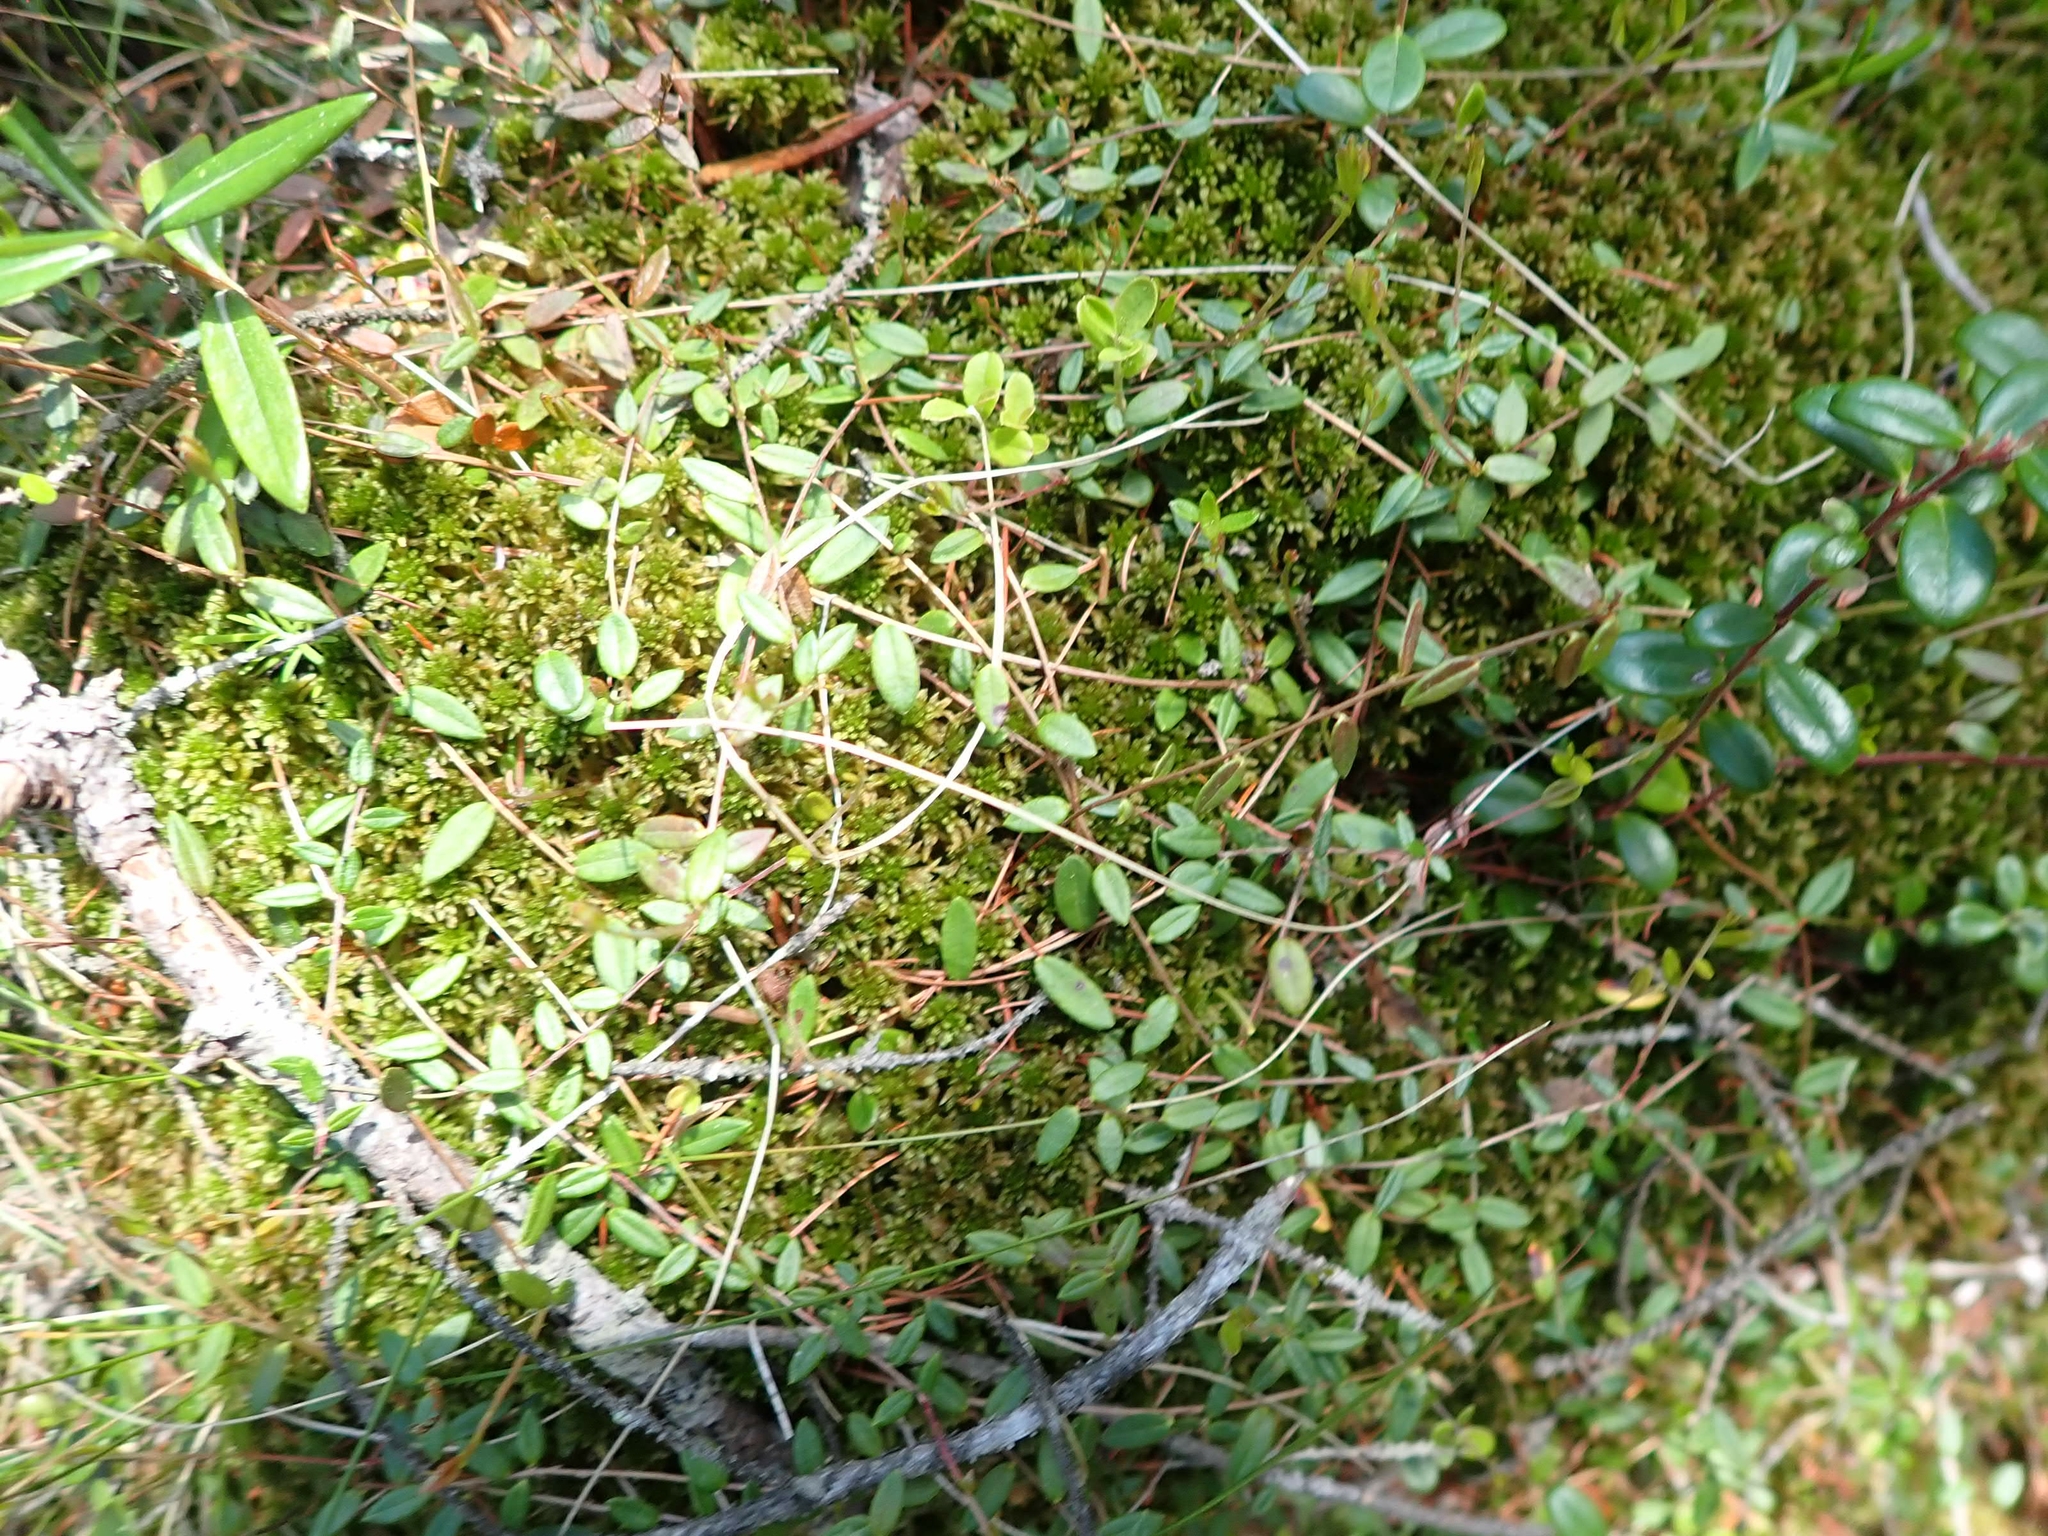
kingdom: Plantae
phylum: Tracheophyta
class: Magnoliopsida
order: Ericales
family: Ericaceae
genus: Vaccinium
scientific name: Vaccinium oxycoccos
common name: Cranberry
